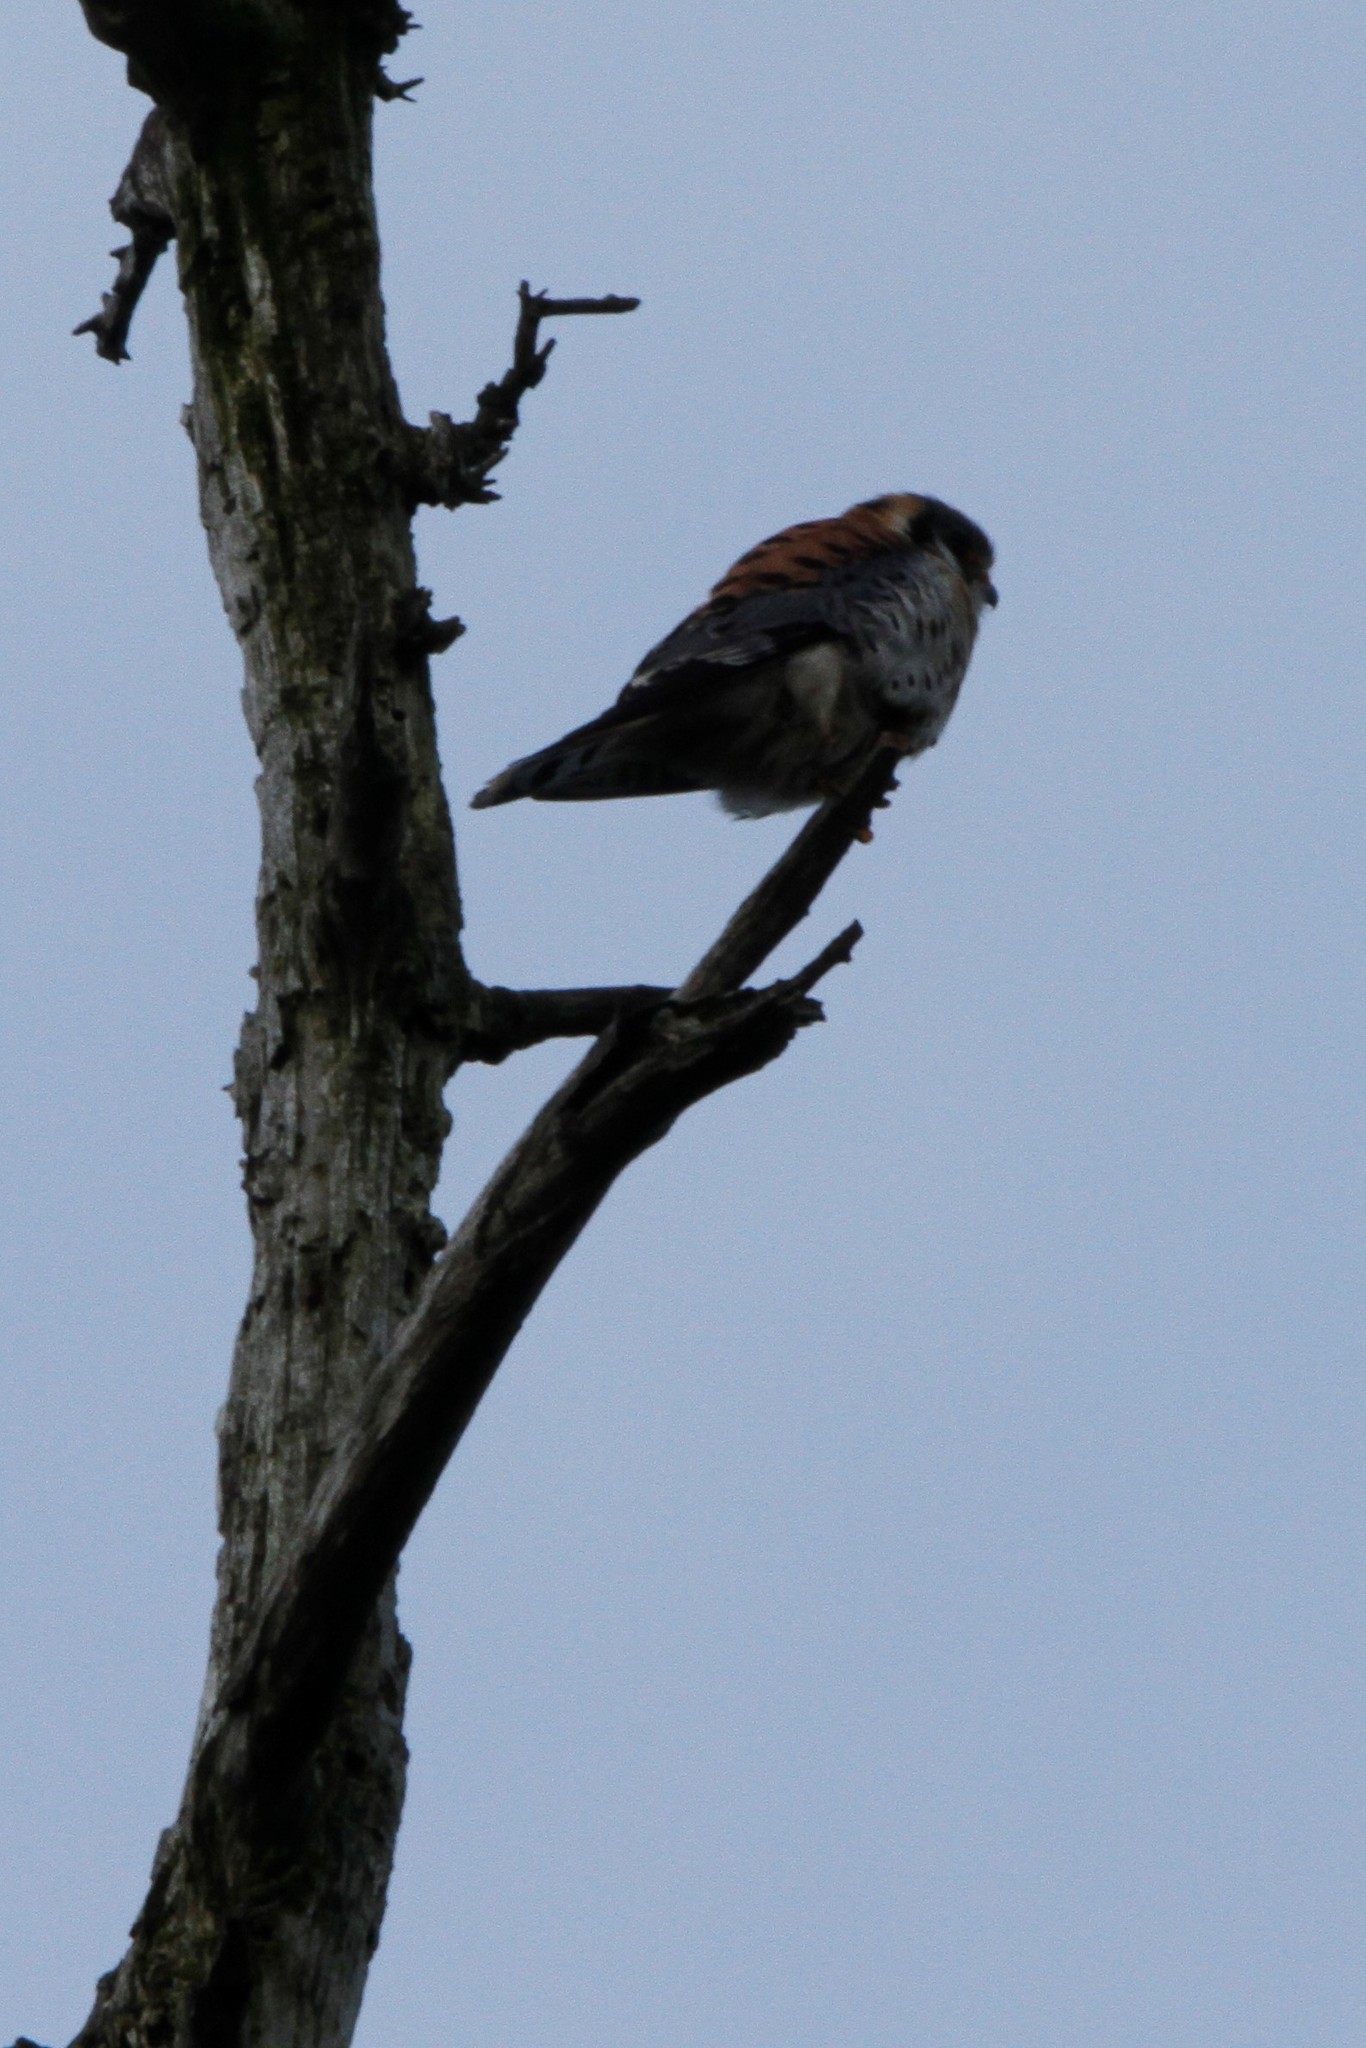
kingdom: Animalia
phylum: Chordata
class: Aves
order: Falconiformes
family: Falconidae
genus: Falco
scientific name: Falco sparverius
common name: American kestrel
